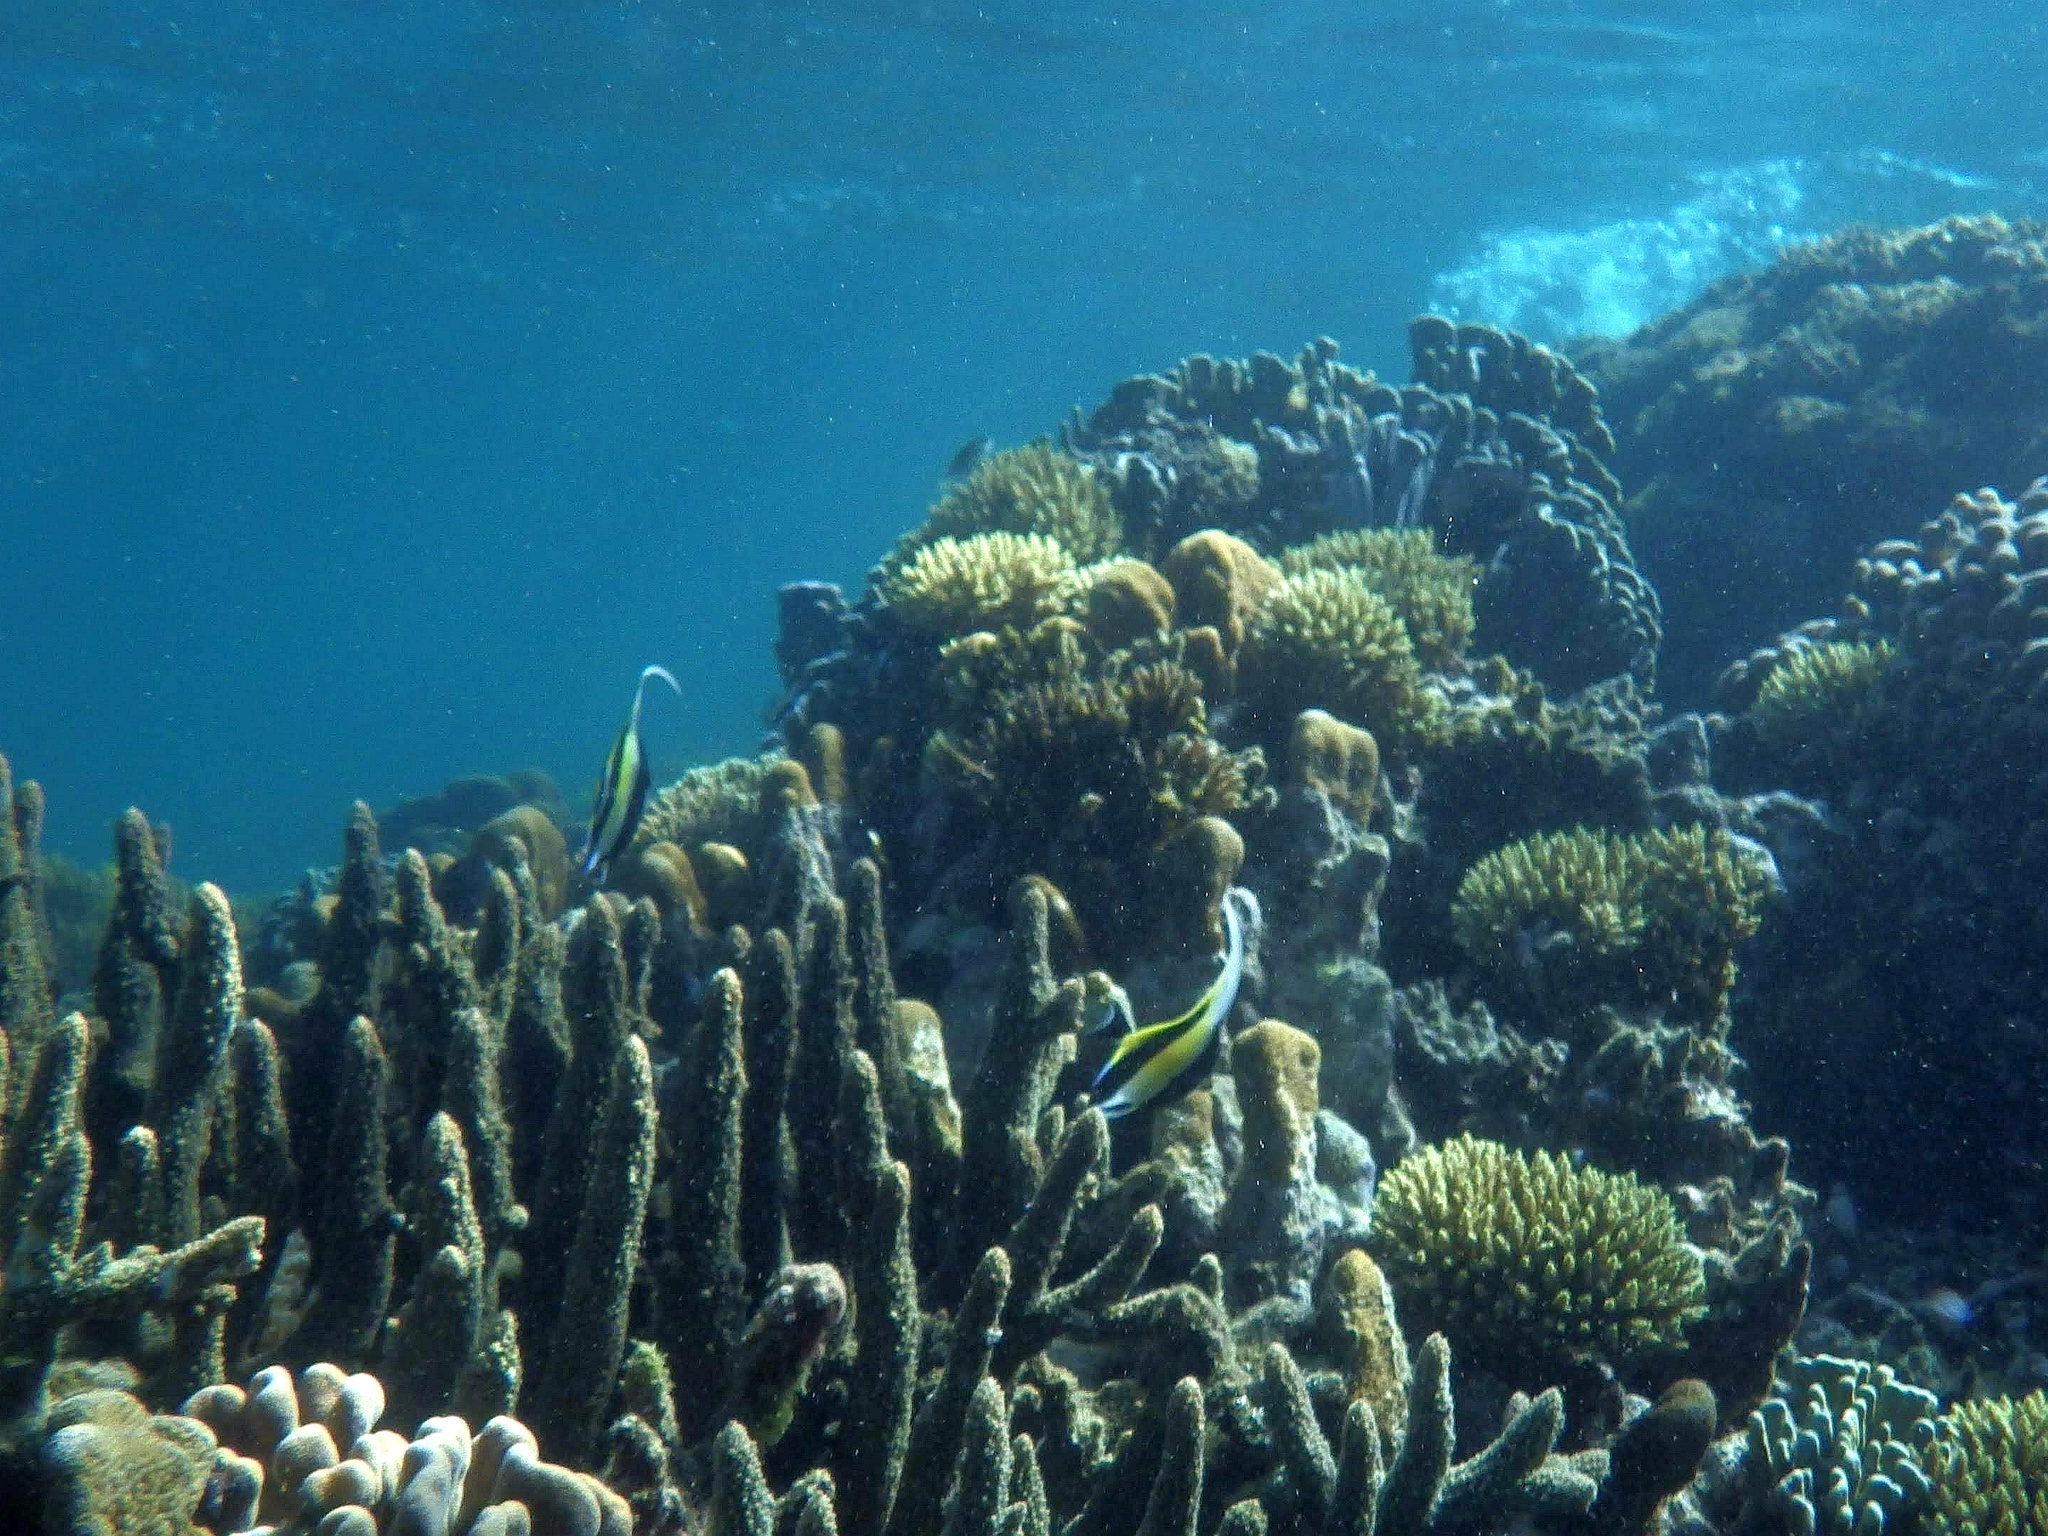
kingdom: Animalia
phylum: Chordata
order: Perciformes
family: Zanclidae
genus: Zanclus
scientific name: Zanclus cornutus
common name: Moorish idol
